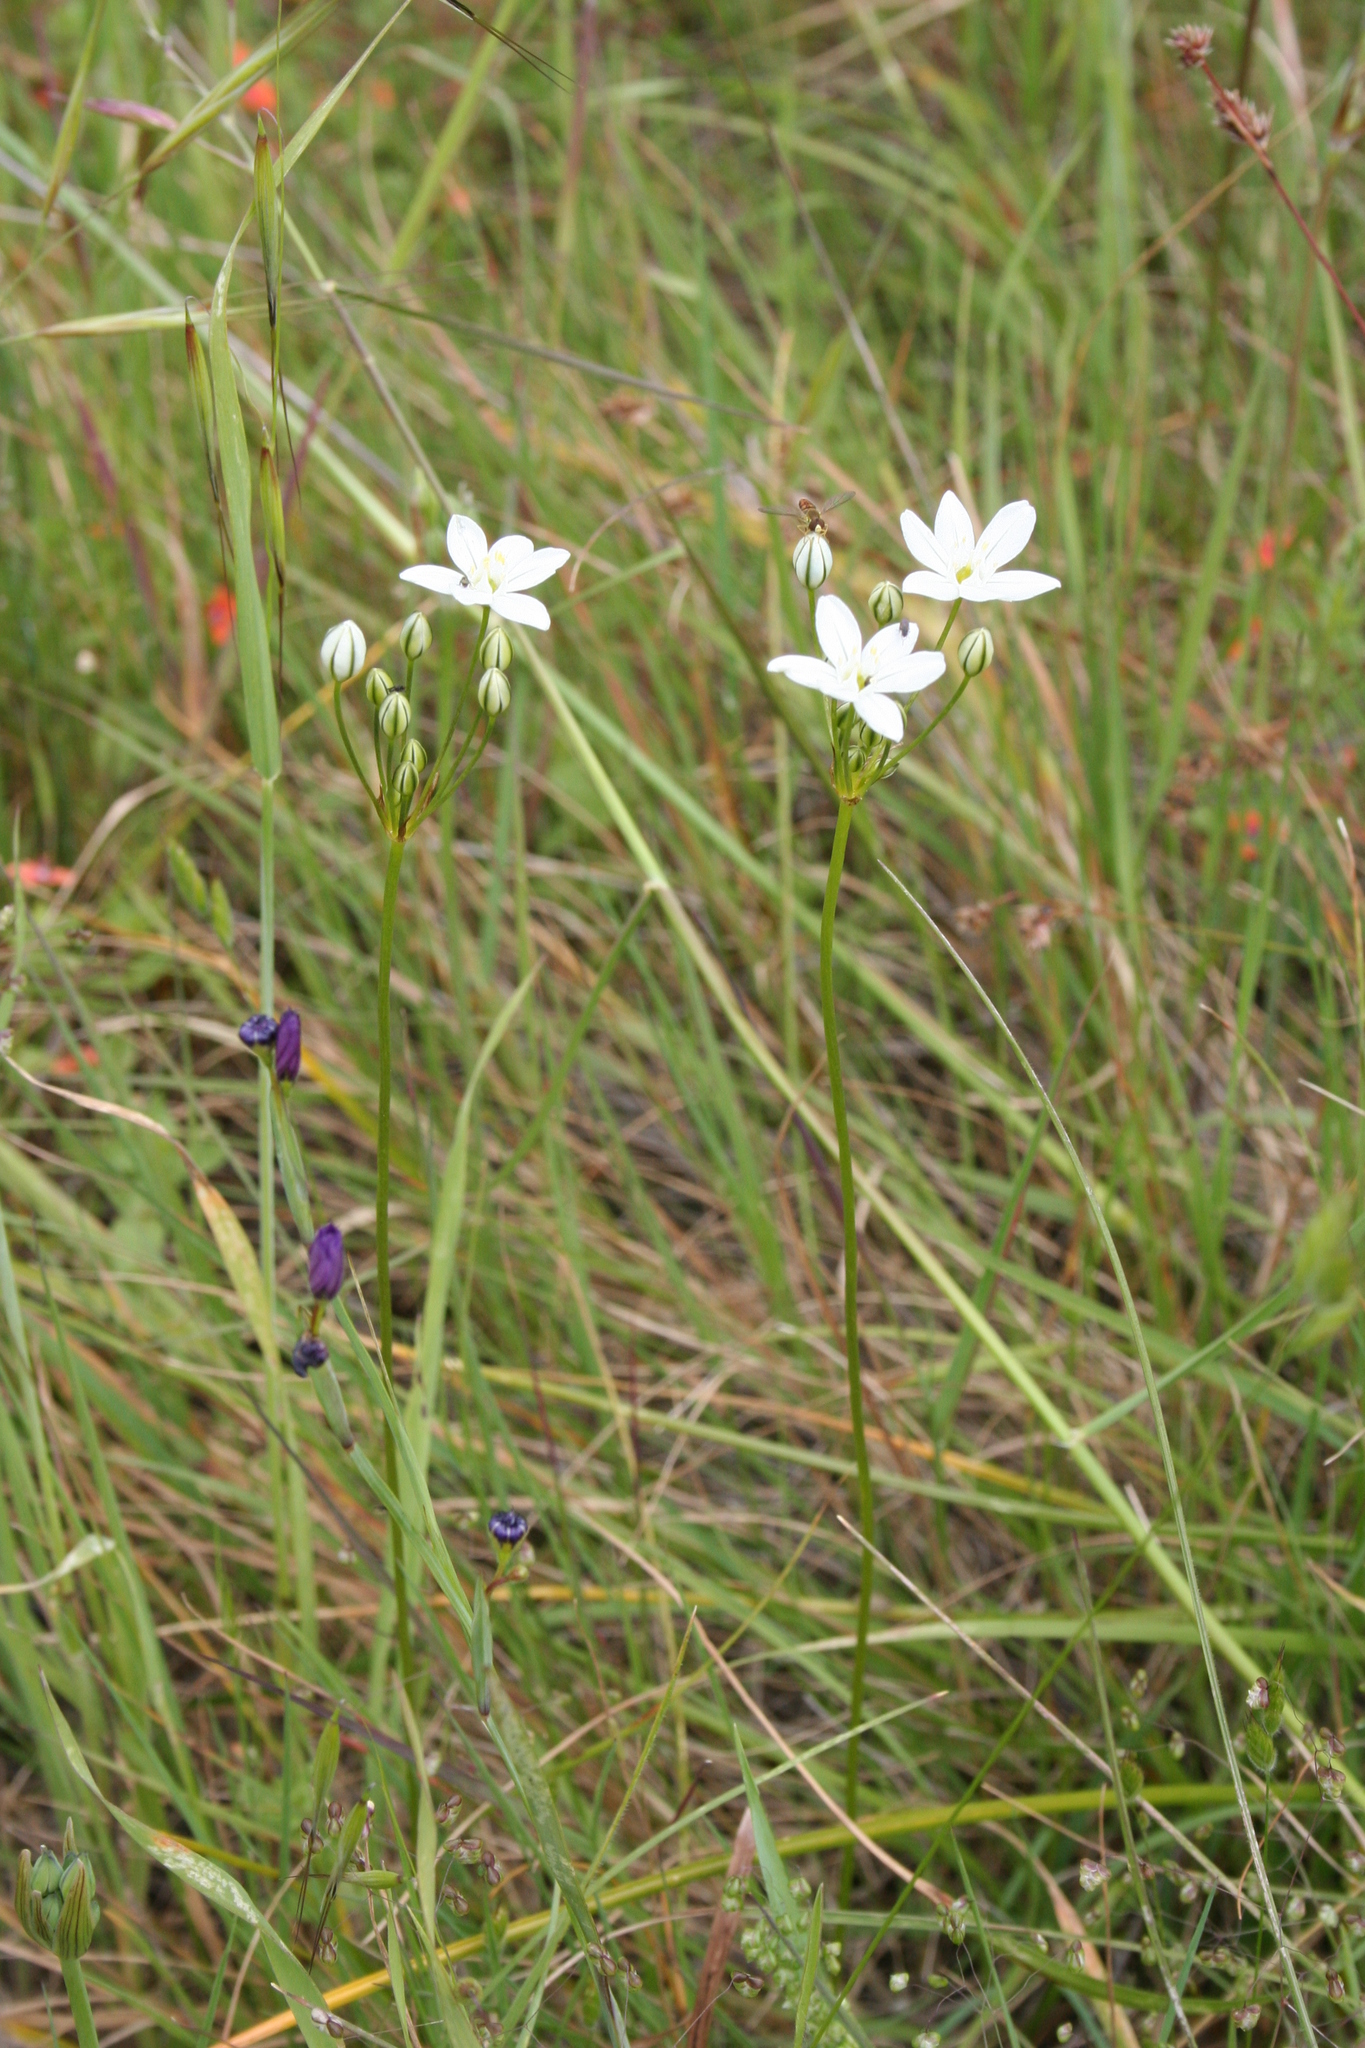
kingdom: Plantae
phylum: Tracheophyta
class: Liliopsida
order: Asparagales
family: Asparagaceae
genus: Triteleia
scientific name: Triteleia hyacinthina
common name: White brodiaea
